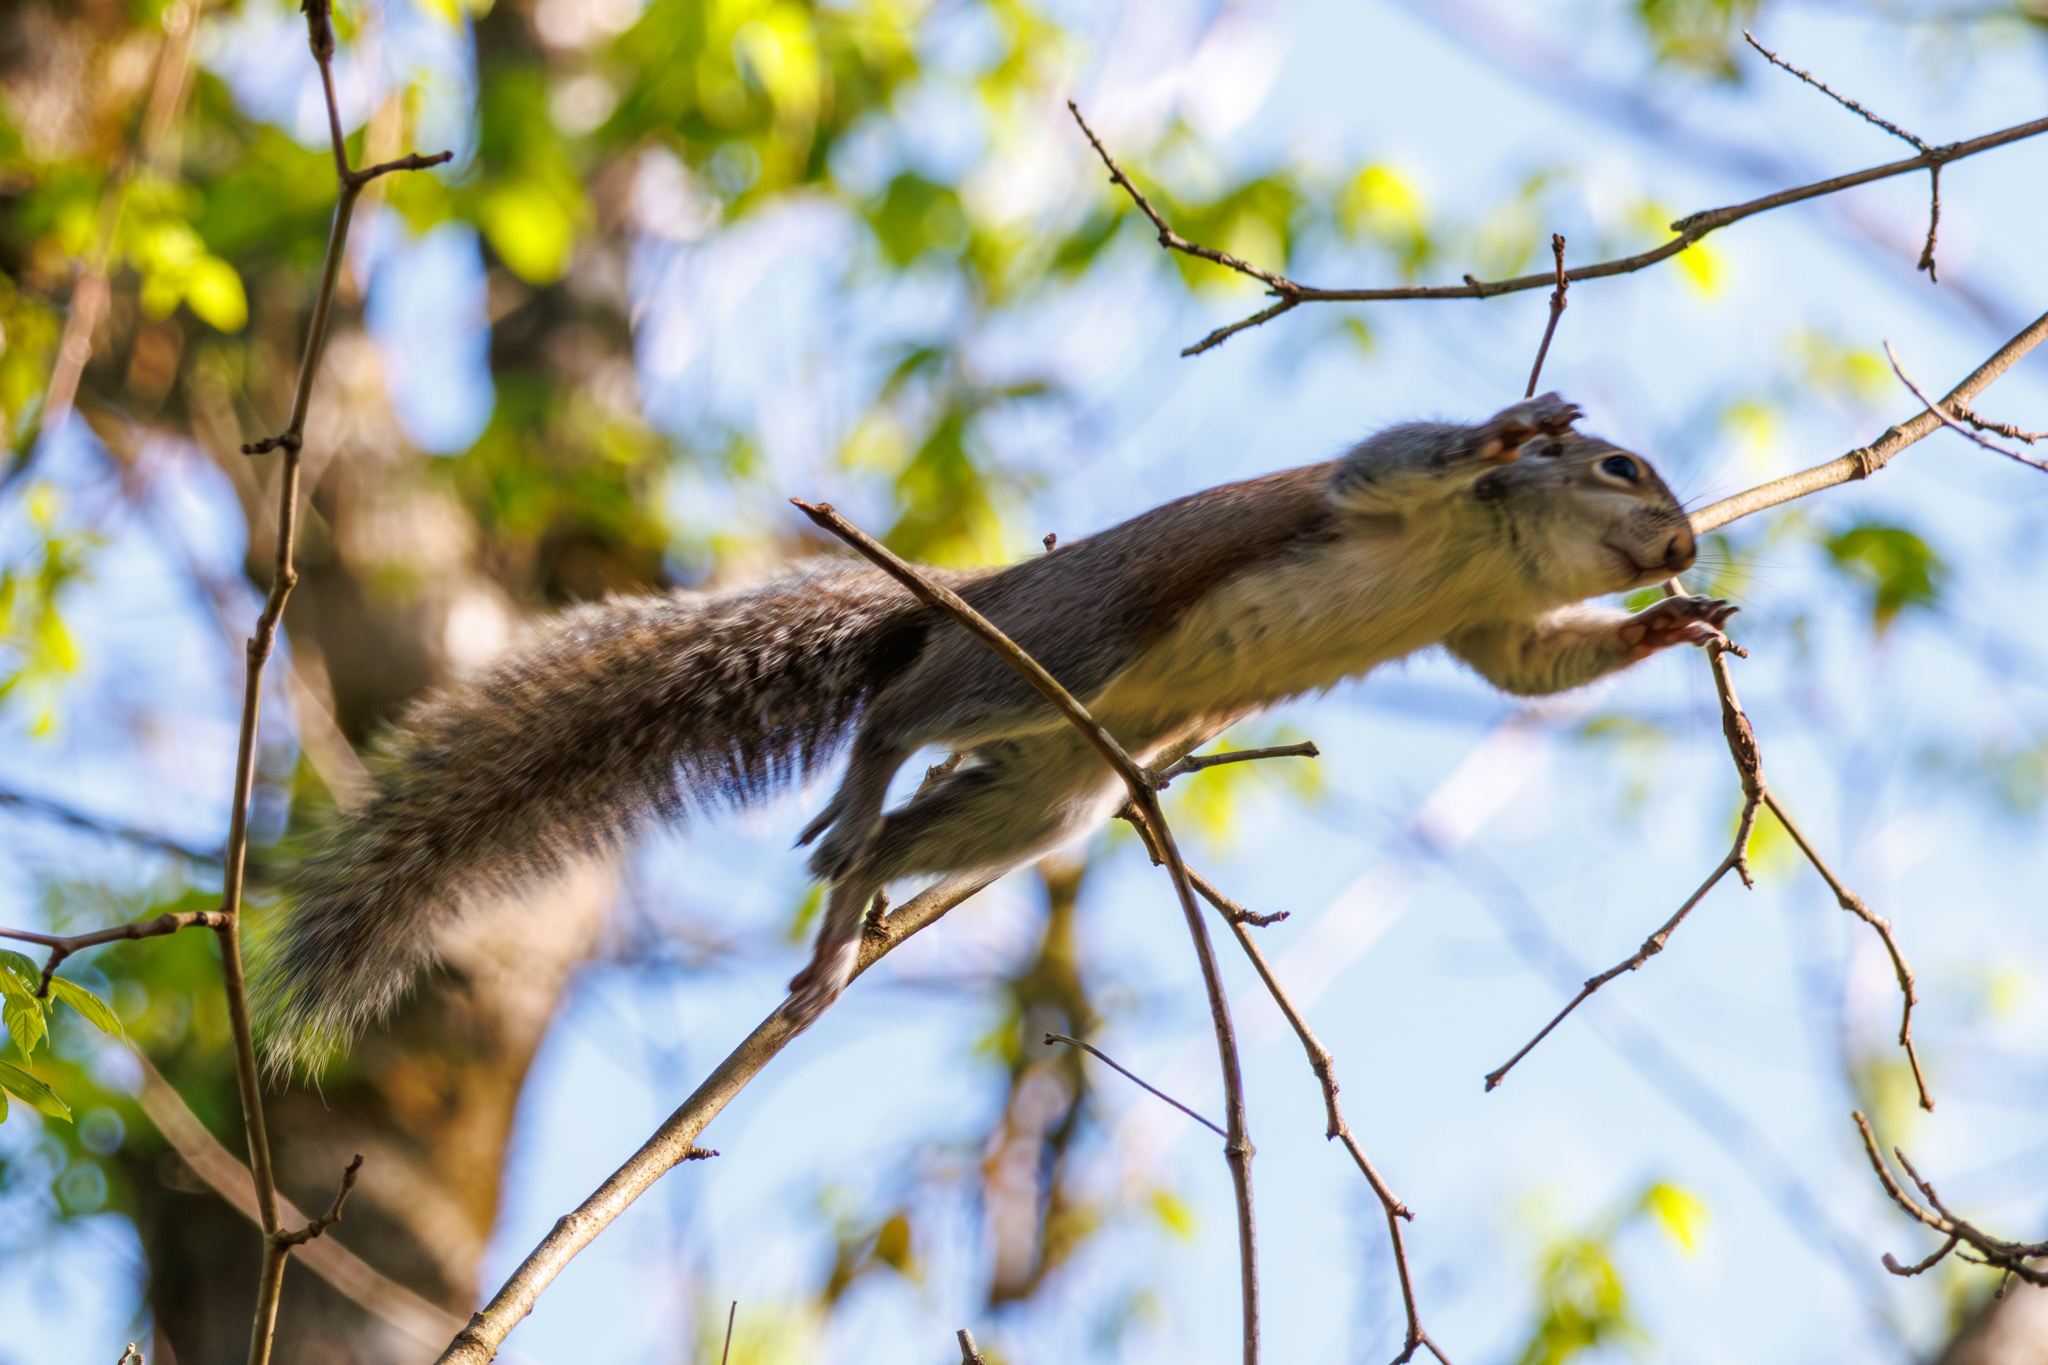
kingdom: Animalia
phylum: Chordata
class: Mammalia
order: Rodentia
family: Sciuridae
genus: Sciurus
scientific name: Sciurus carolinensis
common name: Eastern gray squirrel
